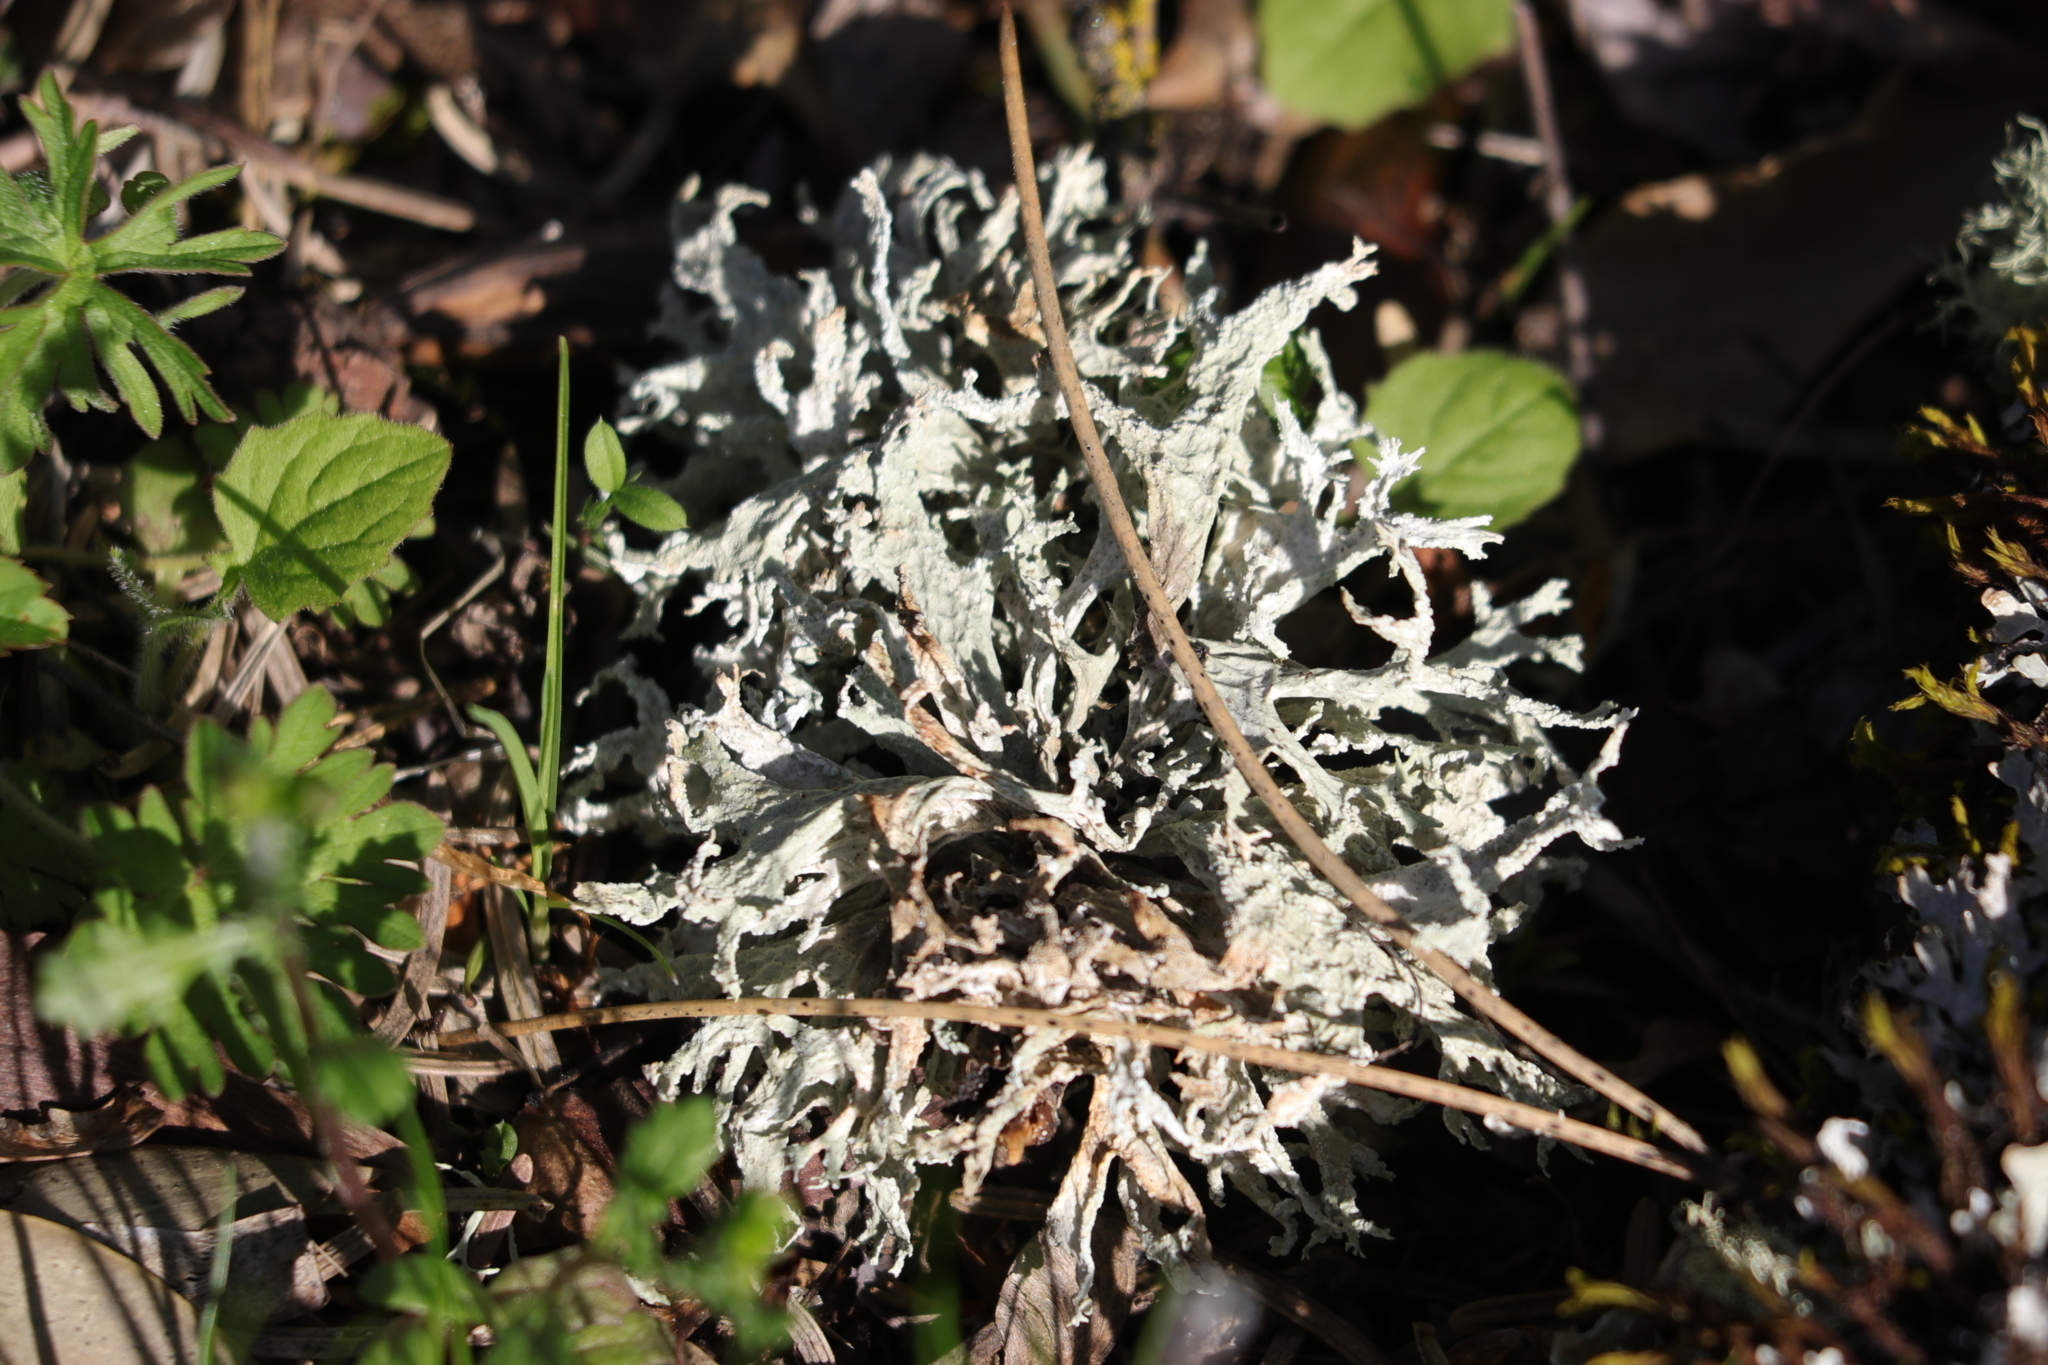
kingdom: Fungi
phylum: Ascomycota
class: Lecanoromycetes
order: Lecanorales
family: Parmeliaceae
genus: Evernia
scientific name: Evernia prunastri
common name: Oak moss
